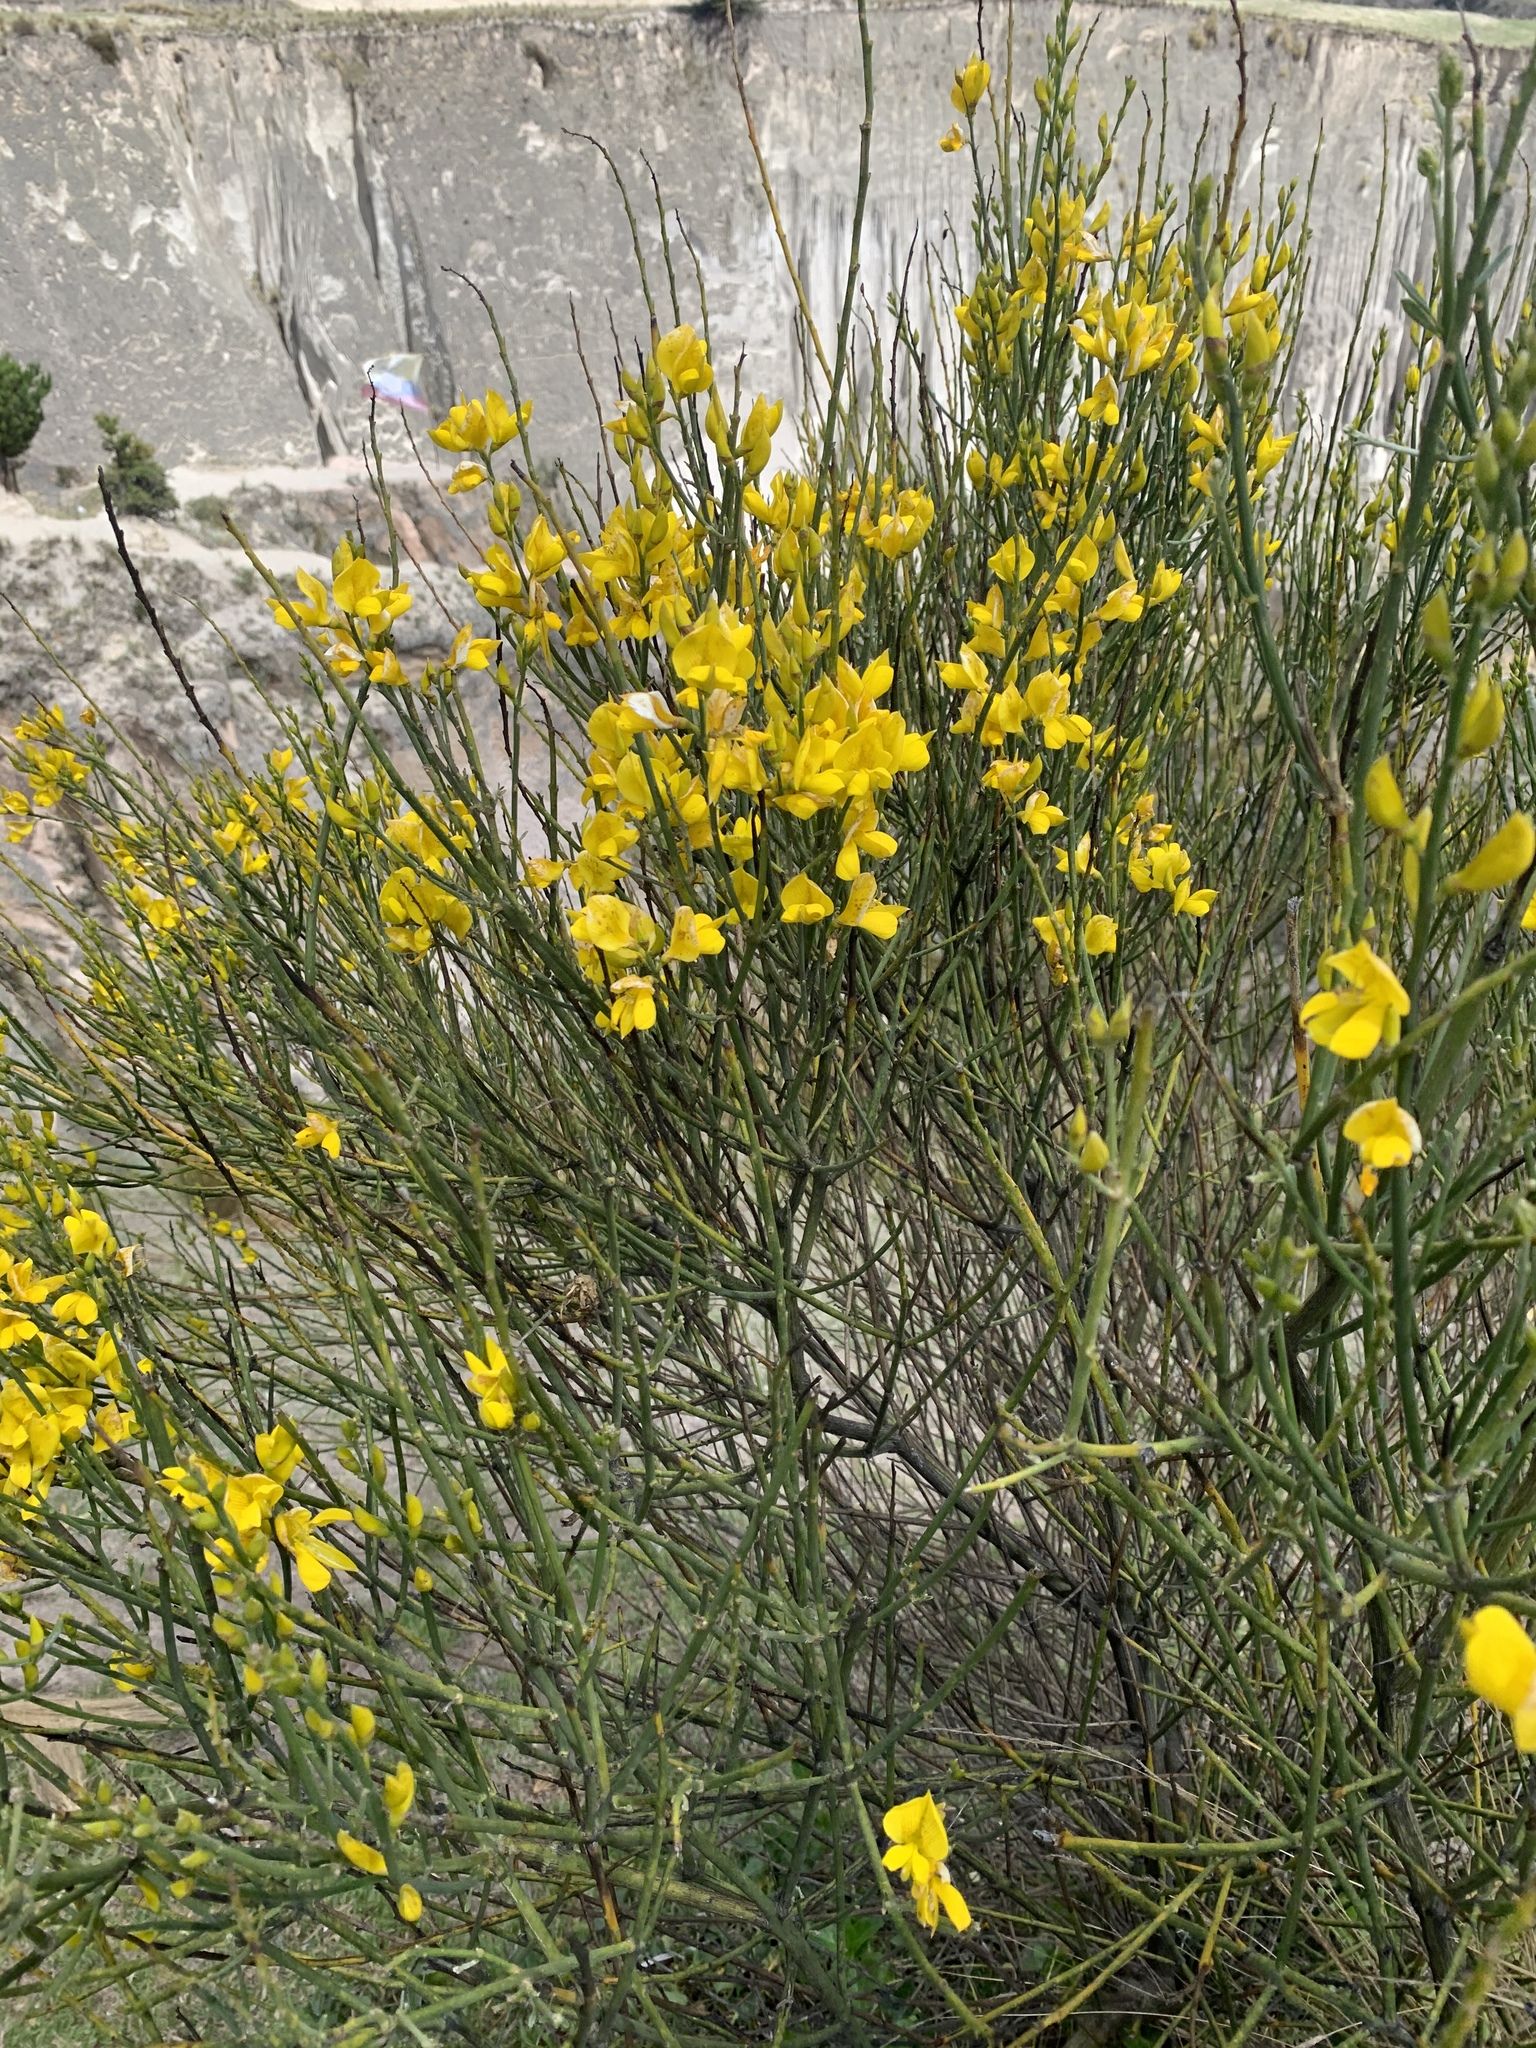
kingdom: Plantae
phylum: Tracheophyta
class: Magnoliopsida
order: Fabales
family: Fabaceae
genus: Spartium
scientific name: Spartium junceum
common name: Spanish broom
